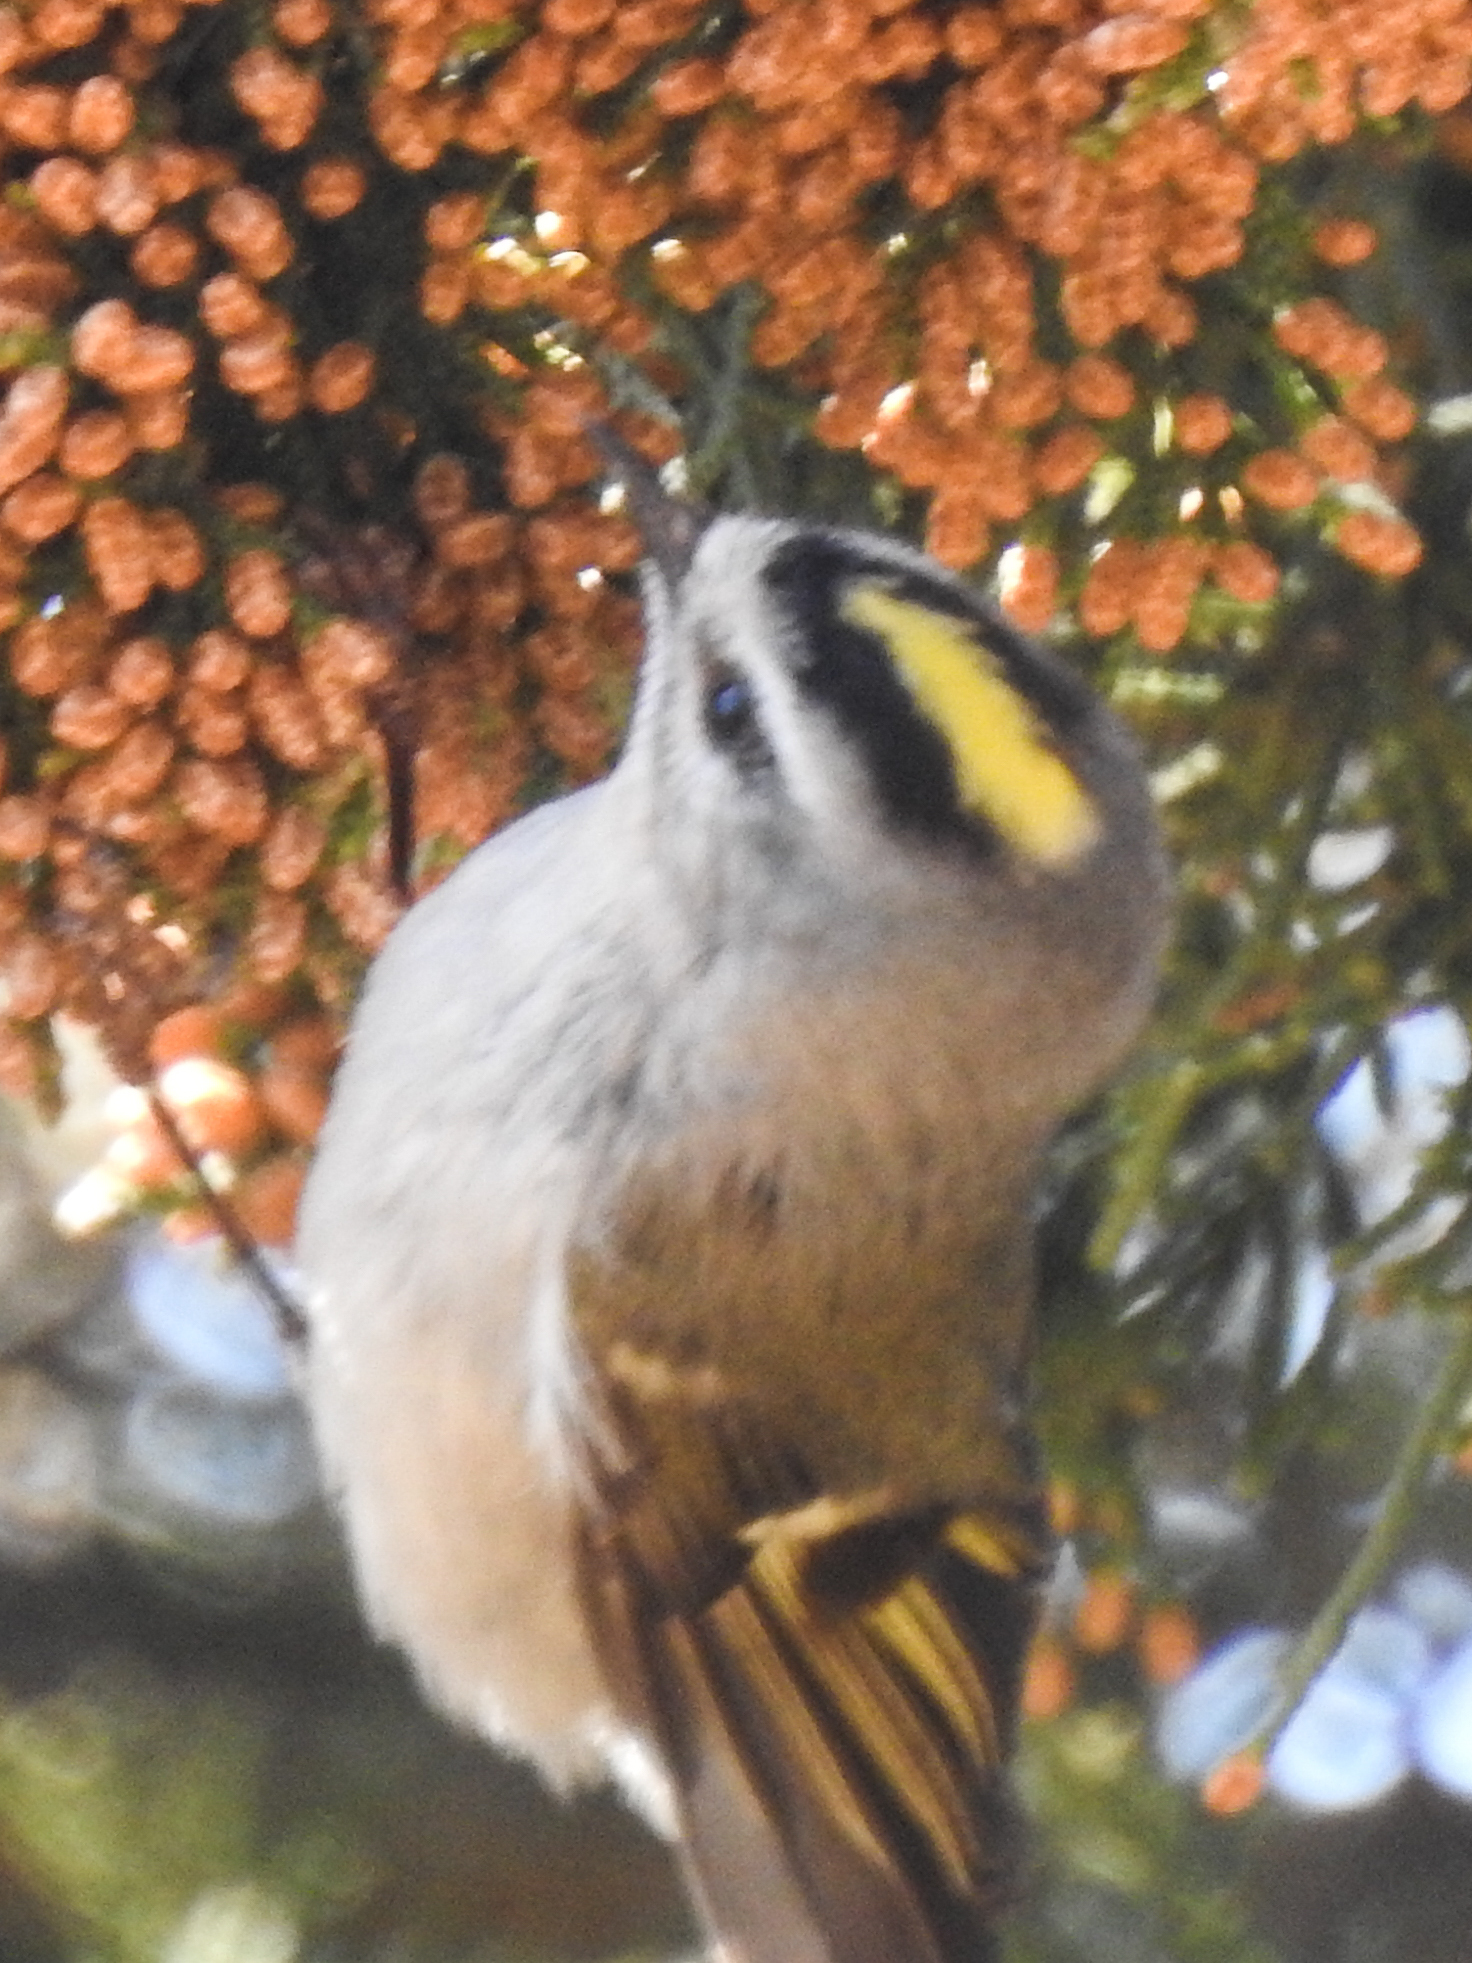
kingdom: Animalia
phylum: Chordata
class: Aves
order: Passeriformes
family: Regulidae
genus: Regulus
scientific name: Regulus satrapa
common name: Golden-crowned kinglet
